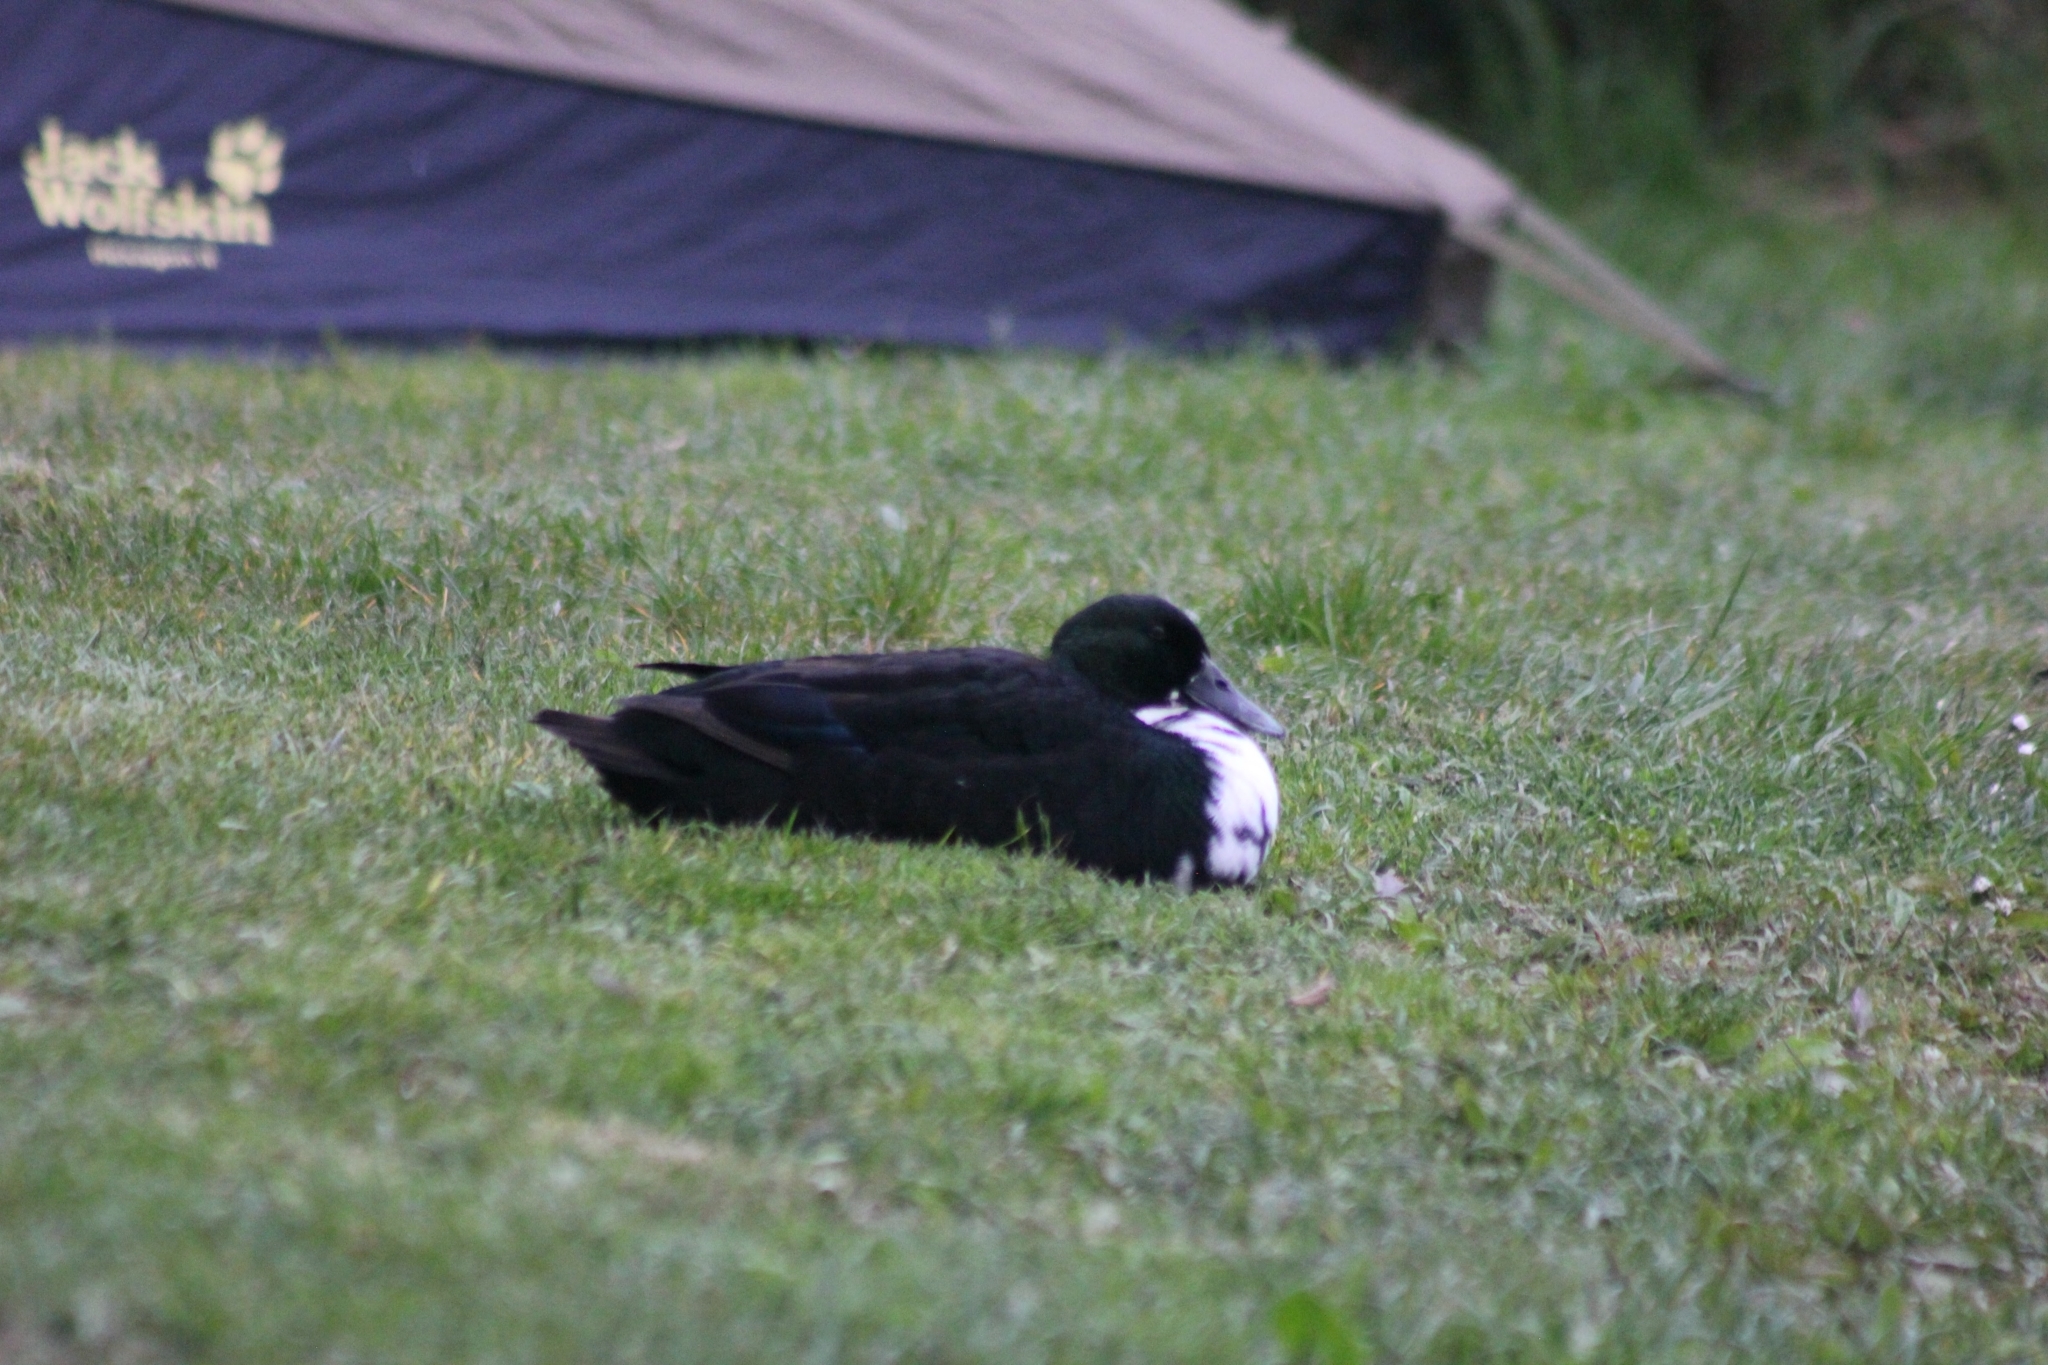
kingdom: Animalia
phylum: Chordata
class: Aves
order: Anseriformes
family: Anatidae
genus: Anas
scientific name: Anas platyrhynchos
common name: Mallard
